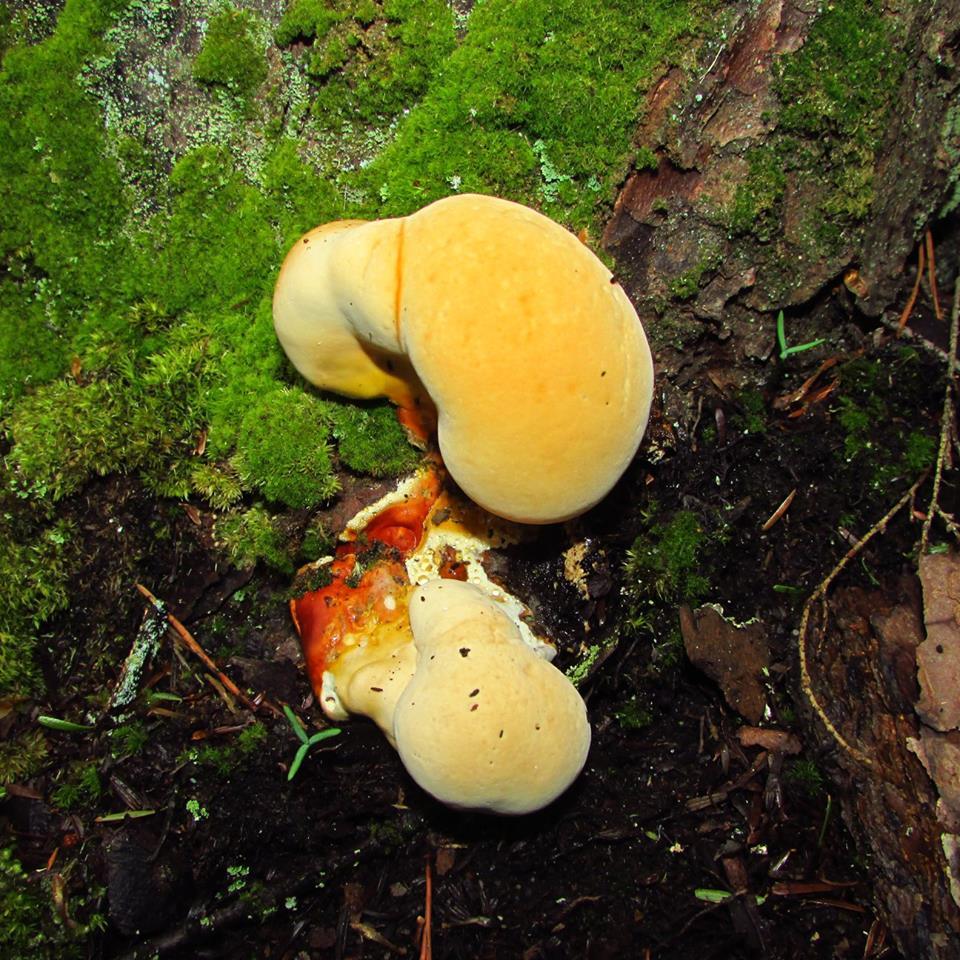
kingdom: Fungi
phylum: Basidiomycota
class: Agaricomycetes
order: Polyporales
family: Polyporaceae
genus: Ganoderma
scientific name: Ganoderma tsugae
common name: Hemlock varnish shelf
